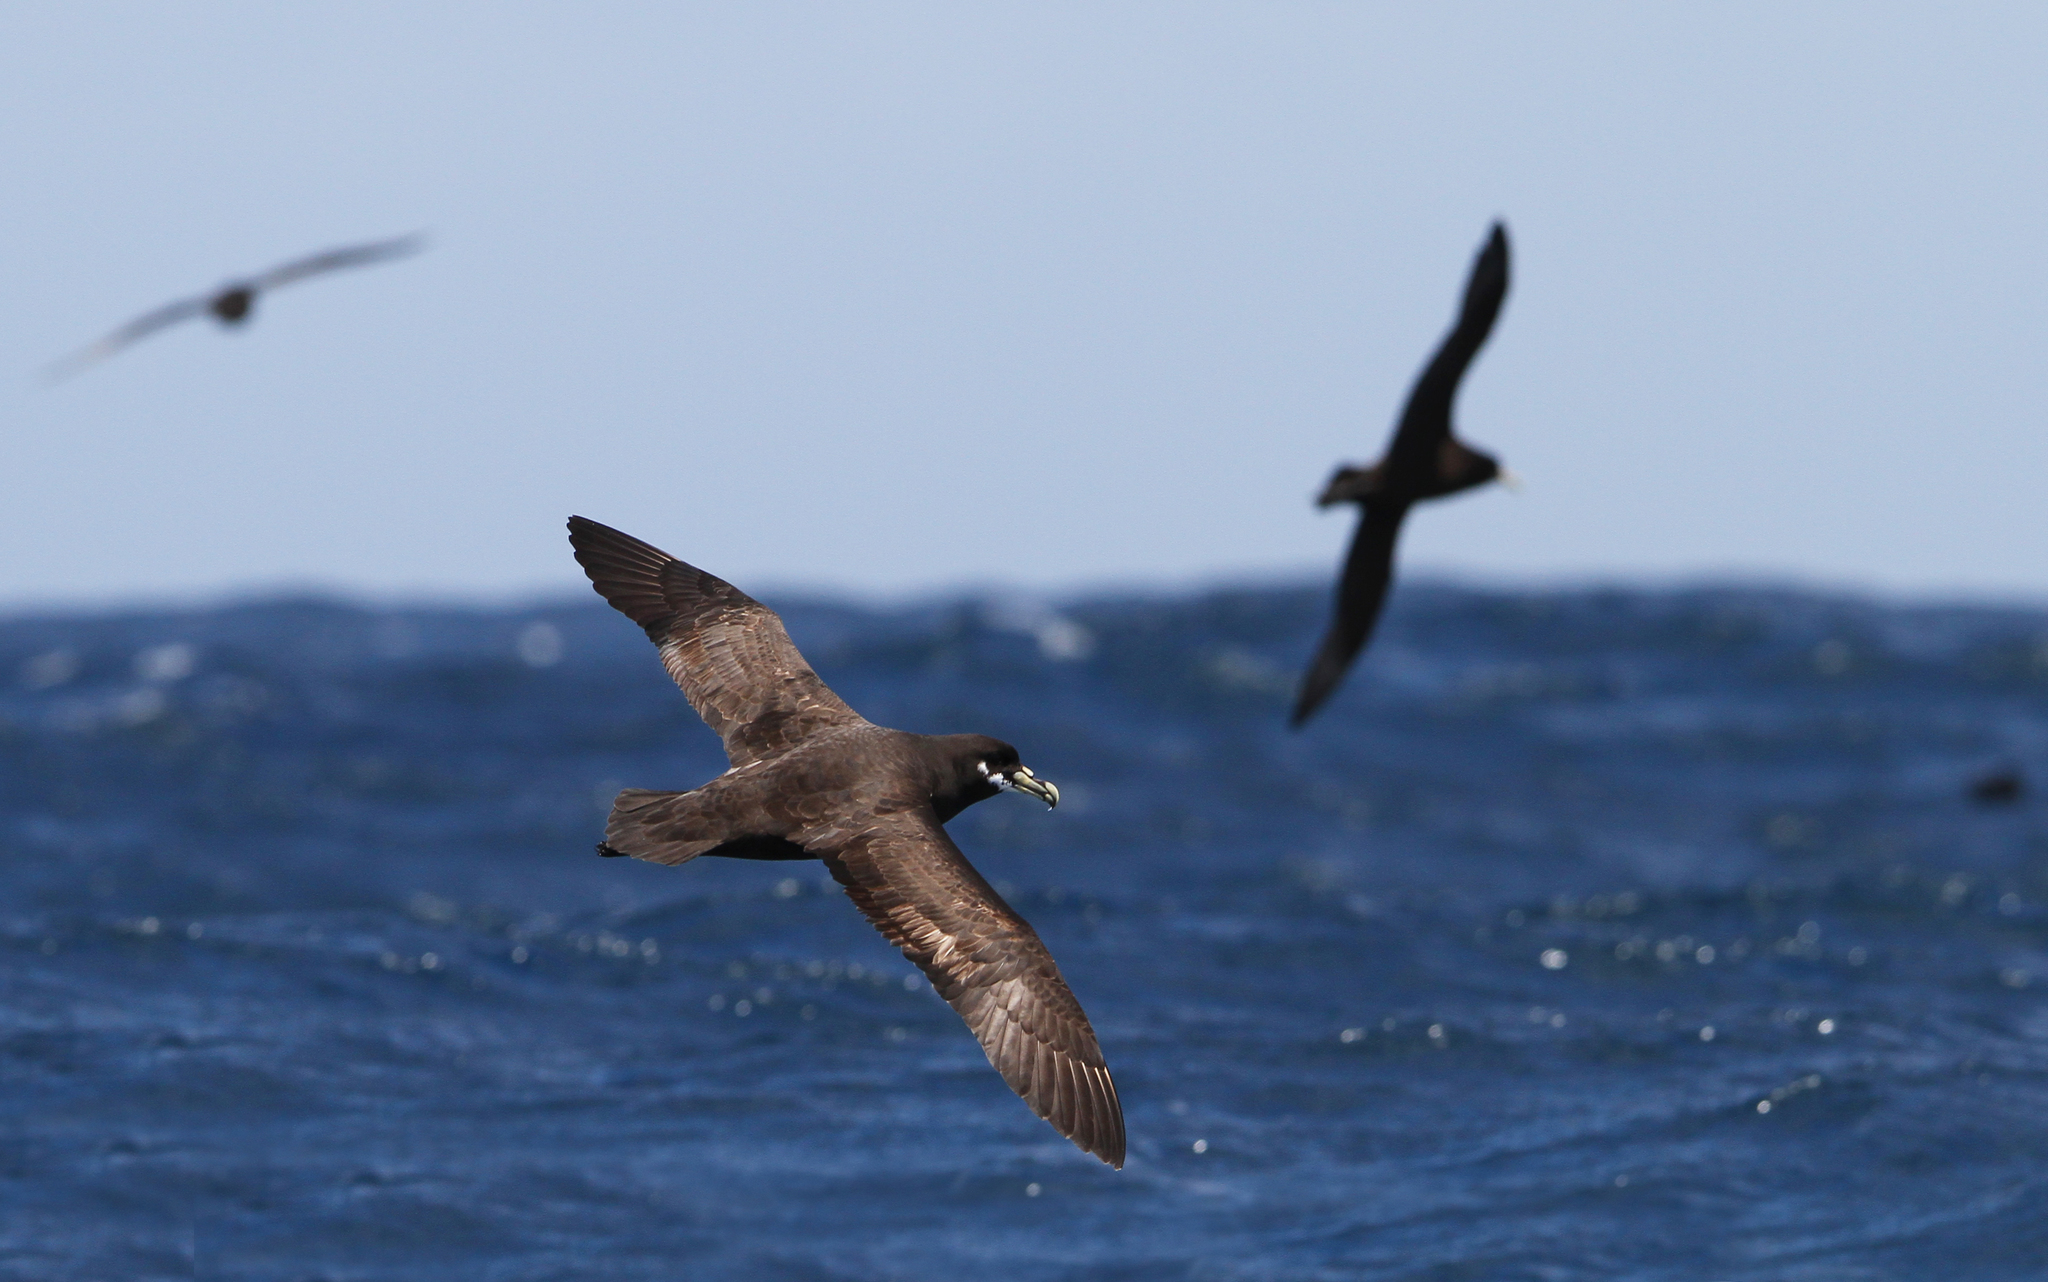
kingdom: Animalia
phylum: Chordata
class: Aves
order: Procellariiformes
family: Procellariidae
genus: Procellaria
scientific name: Procellaria aequinoctialis
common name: White-chinned petrel
